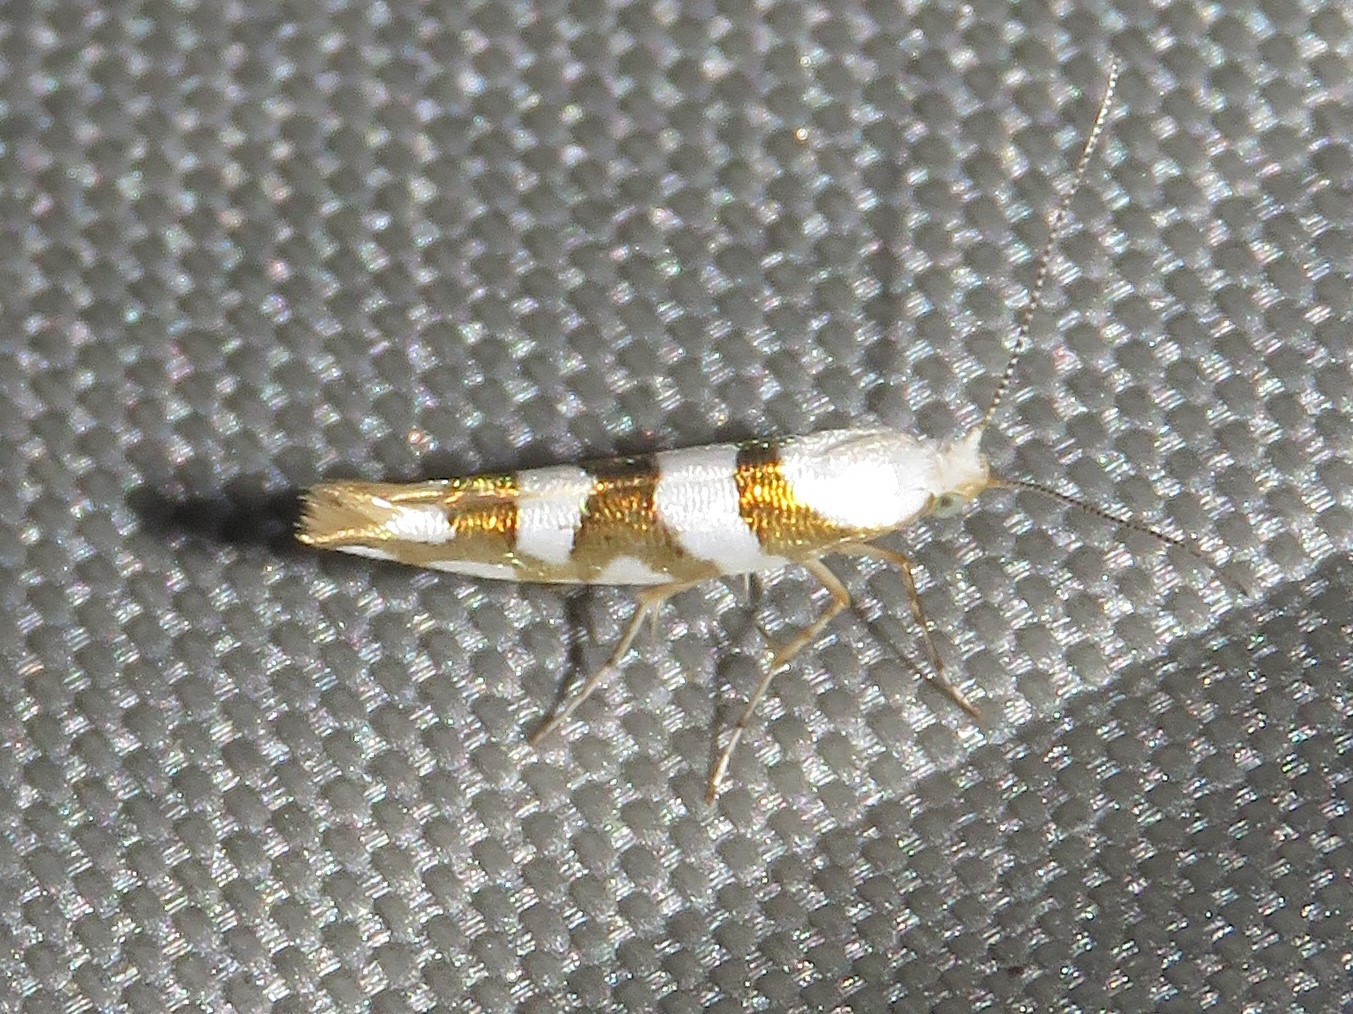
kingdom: Animalia
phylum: Arthropoda
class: Insecta
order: Lepidoptera
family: Argyresthiidae
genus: Argyresthia
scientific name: Argyresthia calliphanes
